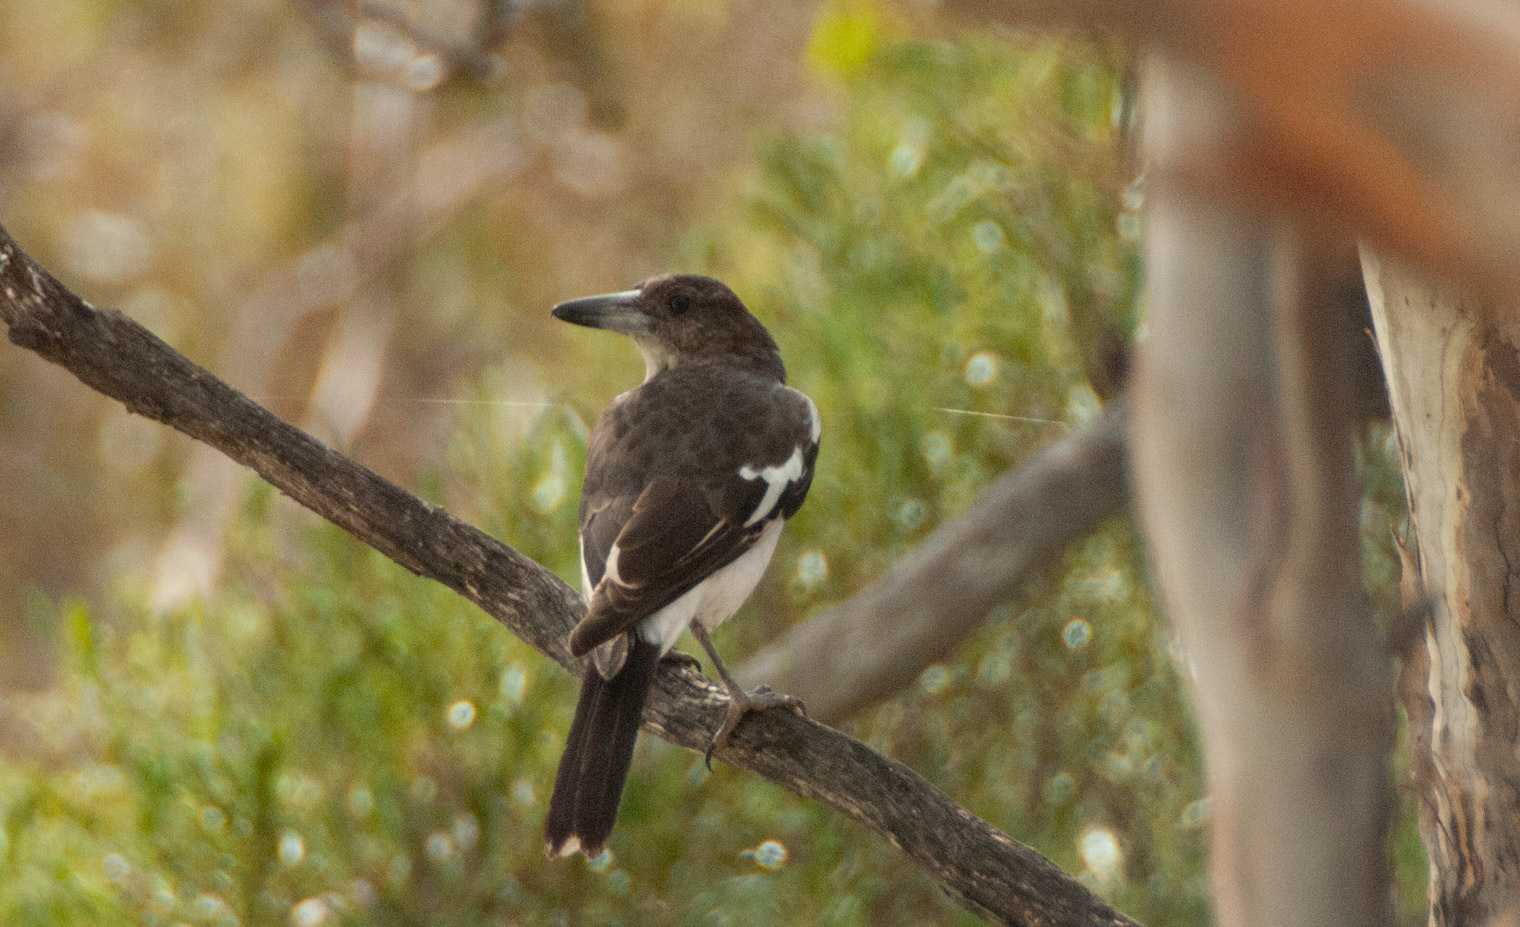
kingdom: Animalia
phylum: Chordata
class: Aves
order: Passeriformes
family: Cracticidae
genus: Cracticus
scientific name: Cracticus nigrogularis
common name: Pied butcherbird
